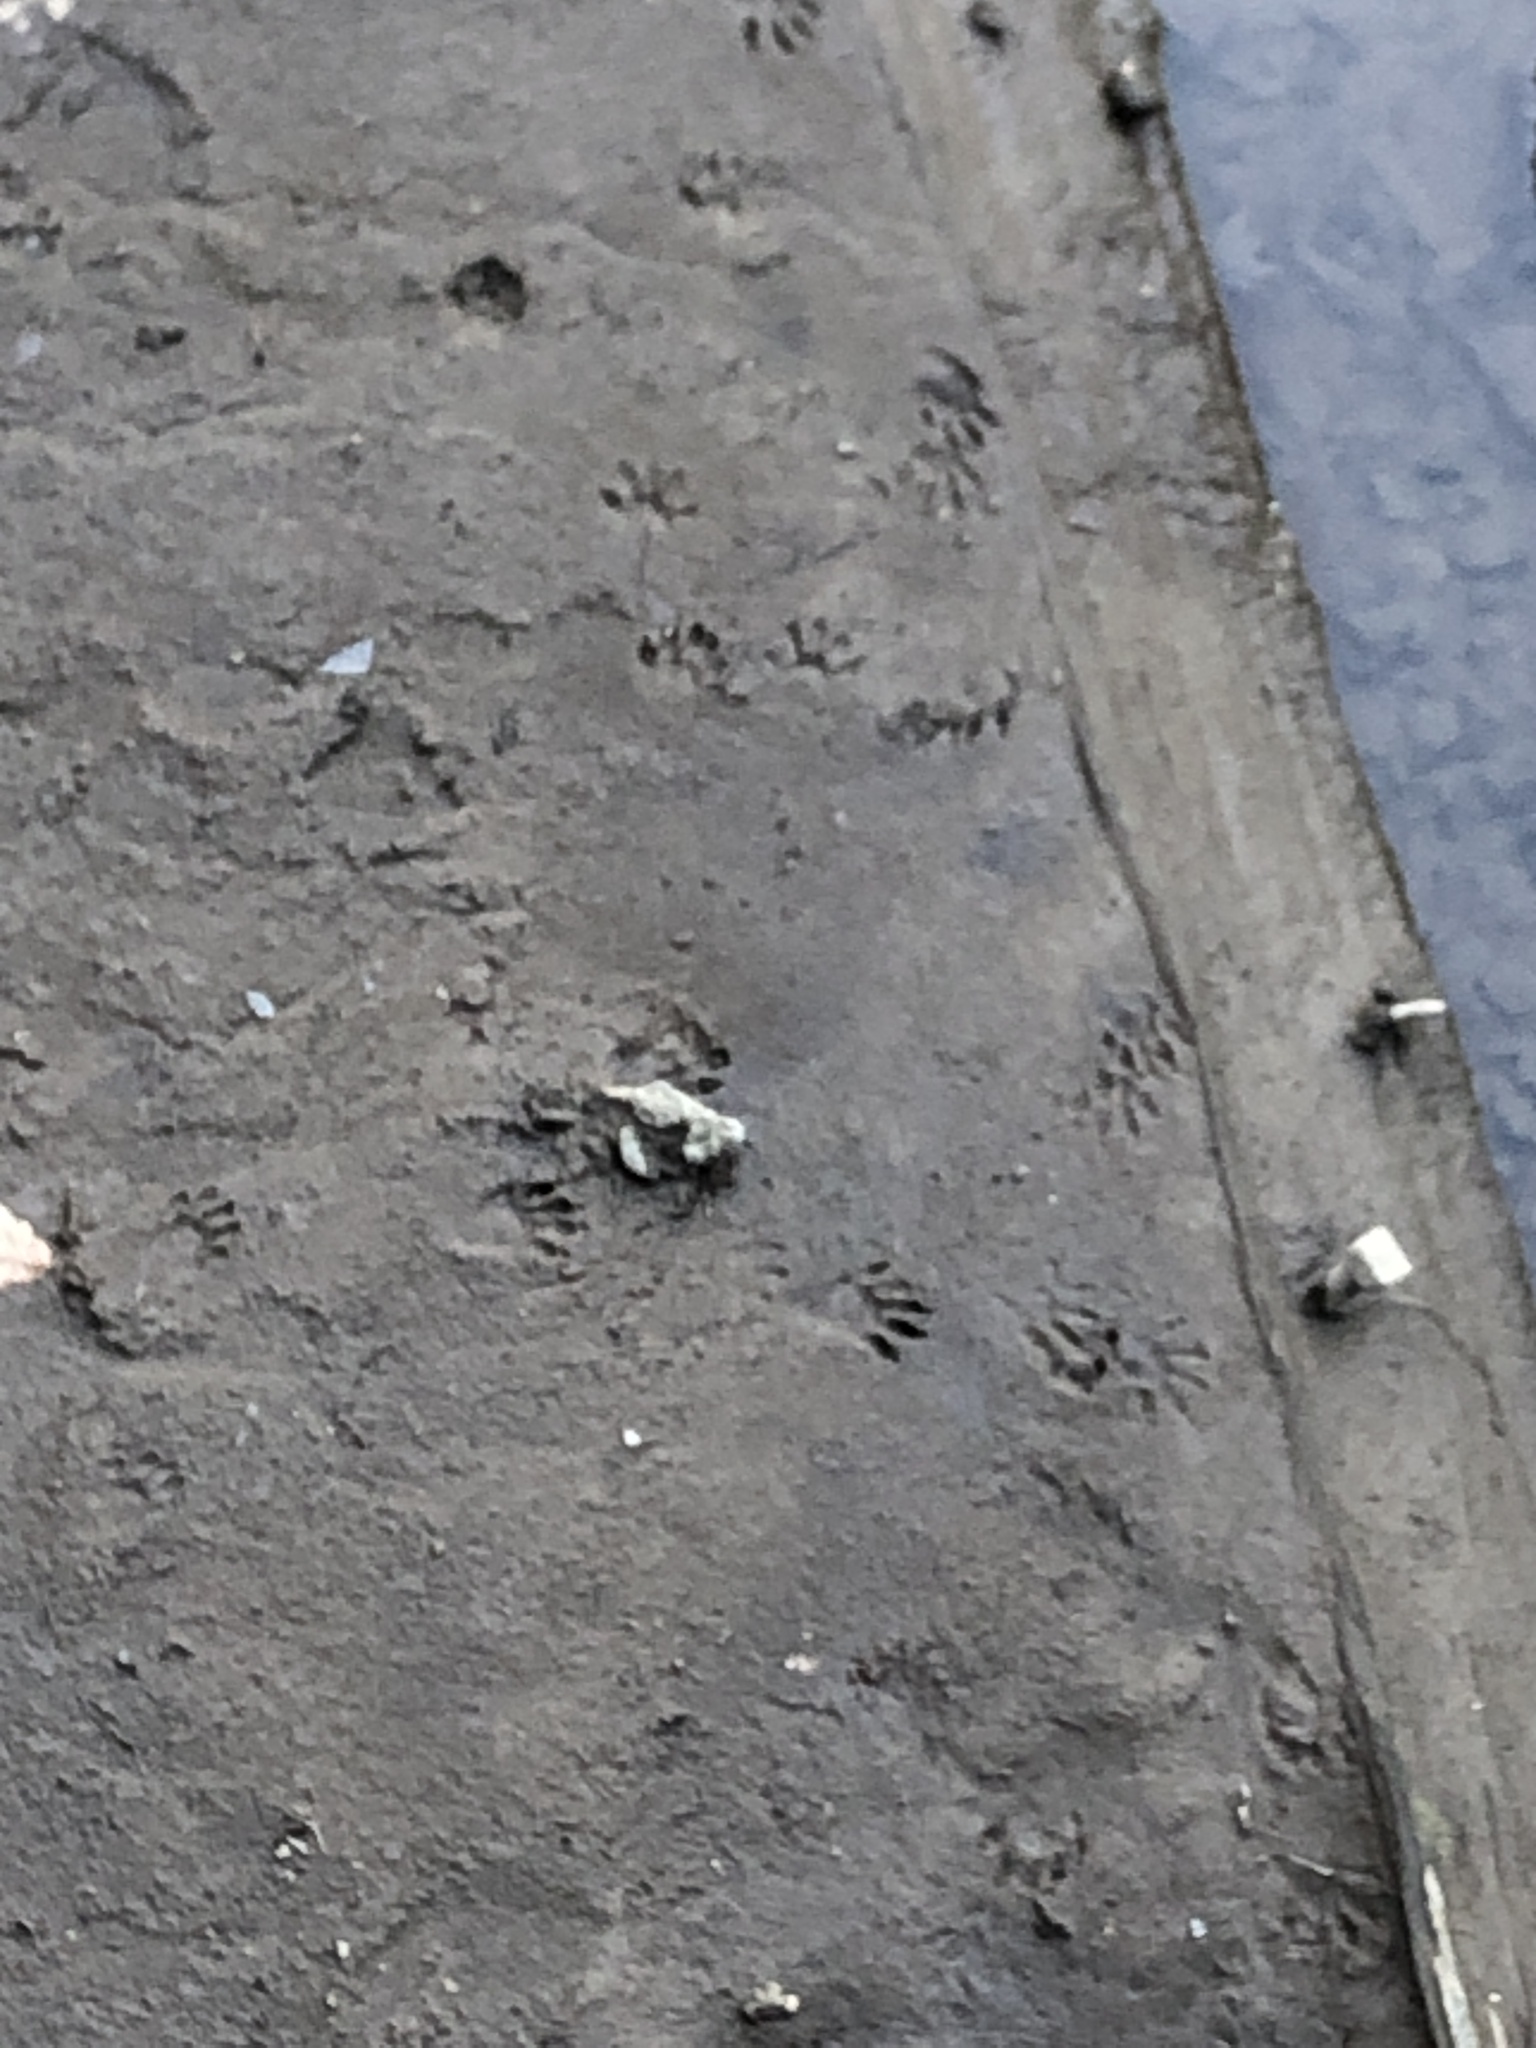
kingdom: Animalia
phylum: Chordata
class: Mammalia
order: Carnivora
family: Procyonidae
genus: Procyon
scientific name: Procyon lotor
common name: Raccoon
